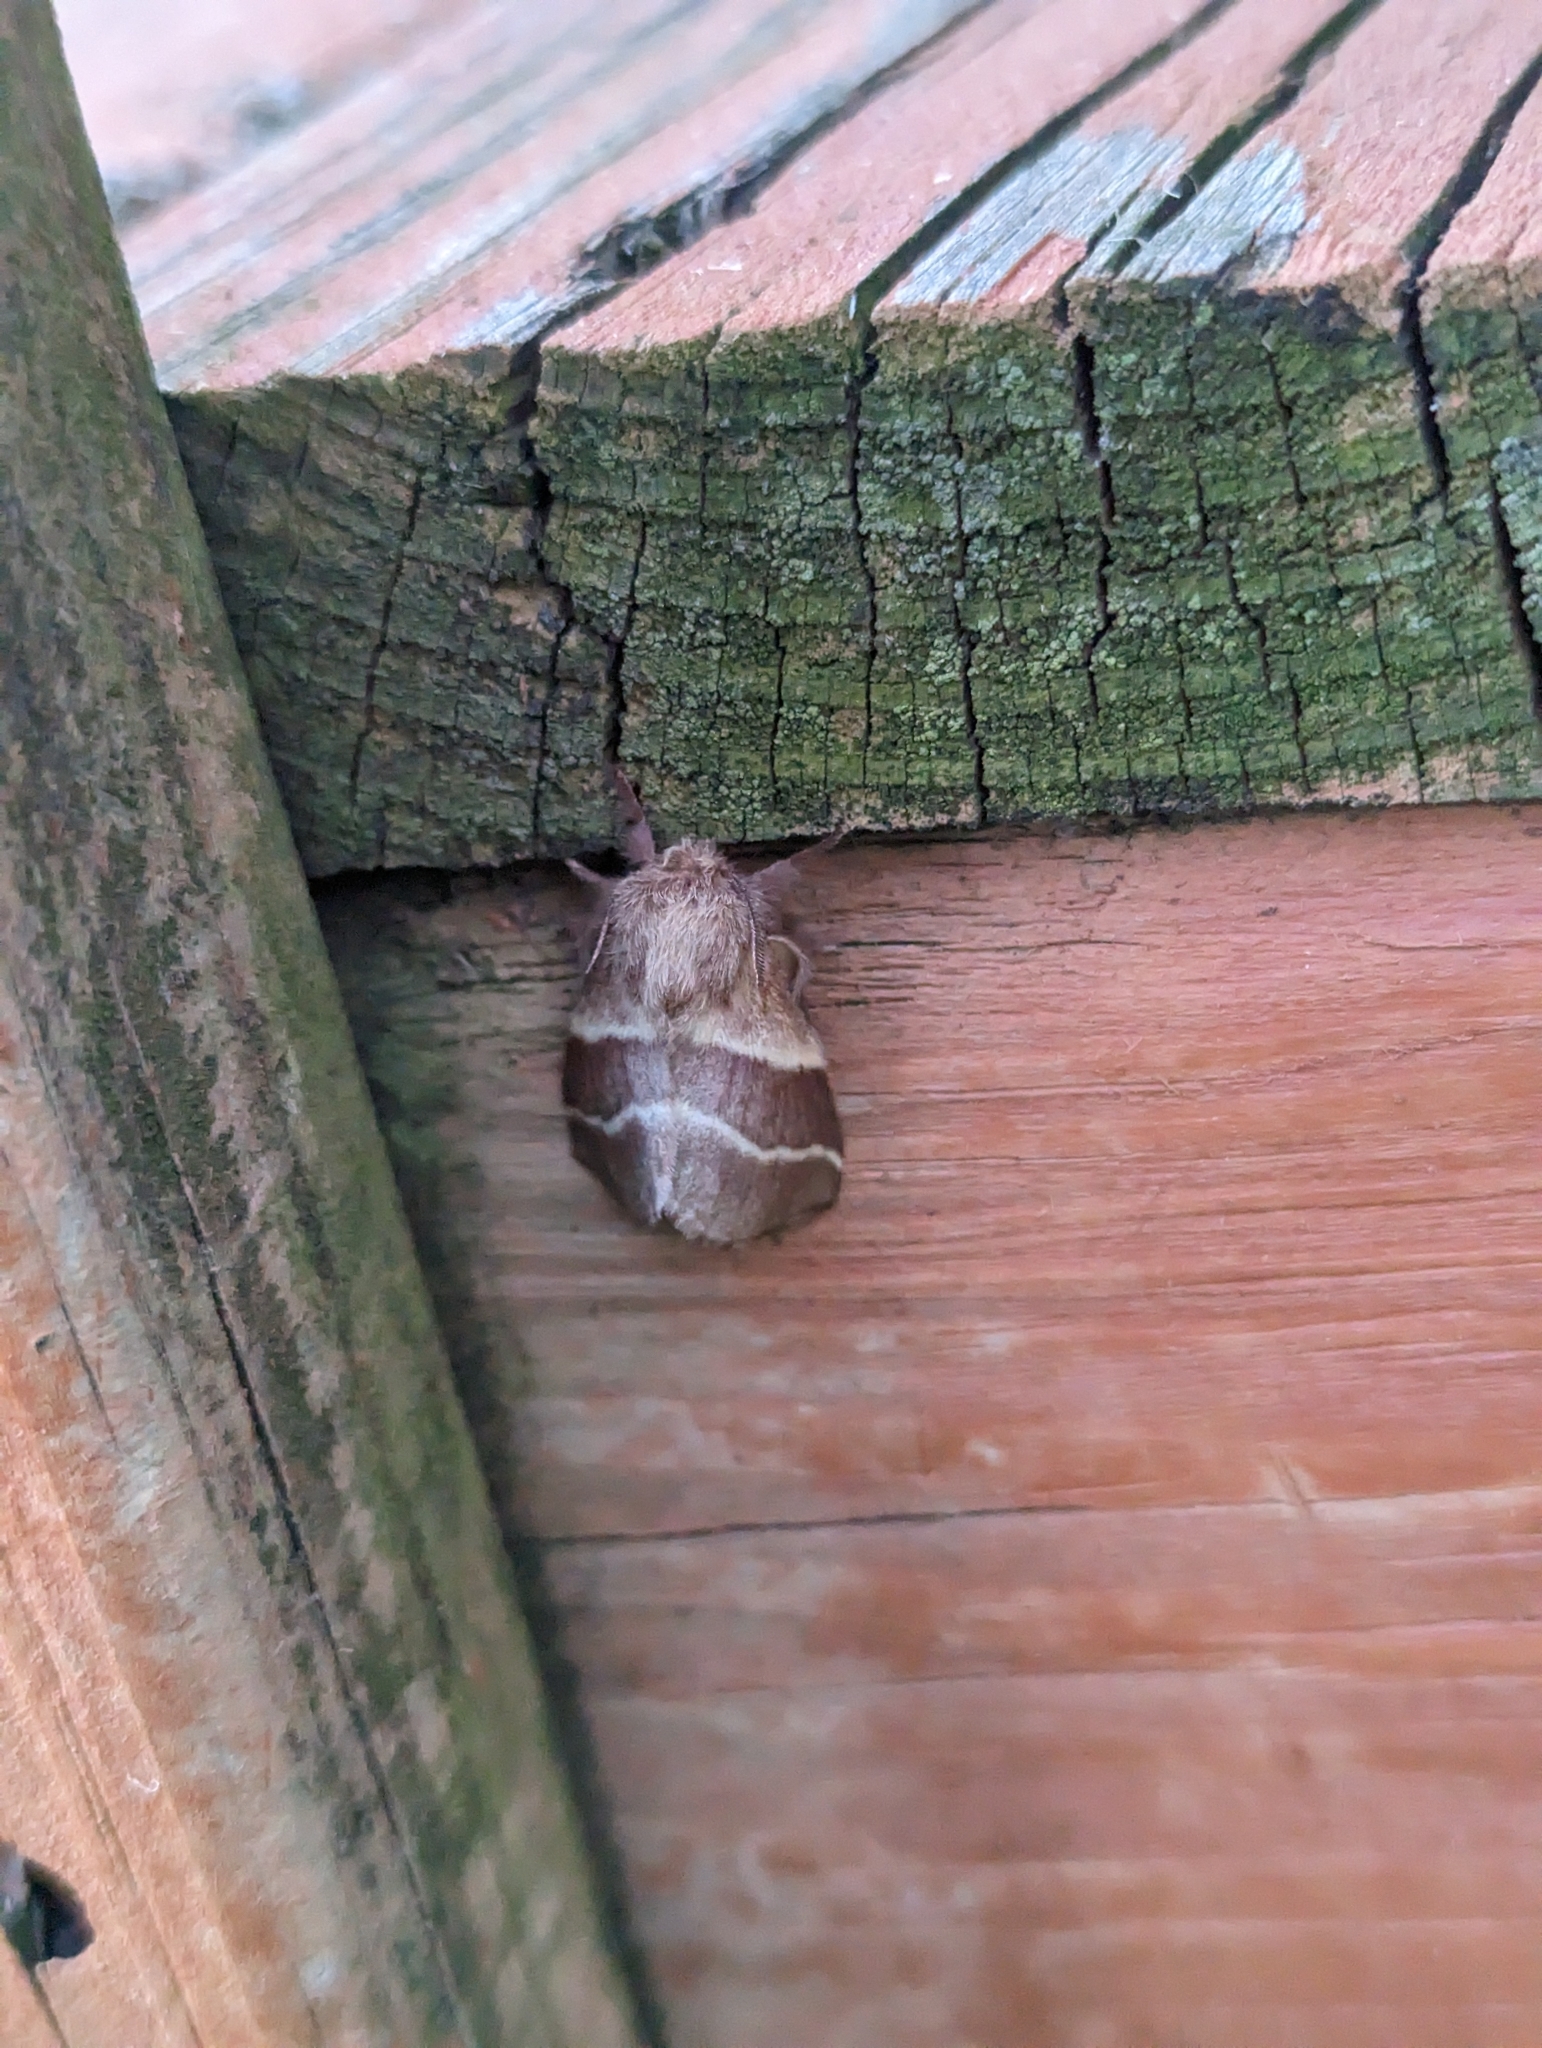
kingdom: Animalia
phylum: Arthropoda
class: Insecta
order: Lepidoptera
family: Lasiocampidae
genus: Malacosoma
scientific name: Malacosoma americana
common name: Eastern tent caterpillar moth
